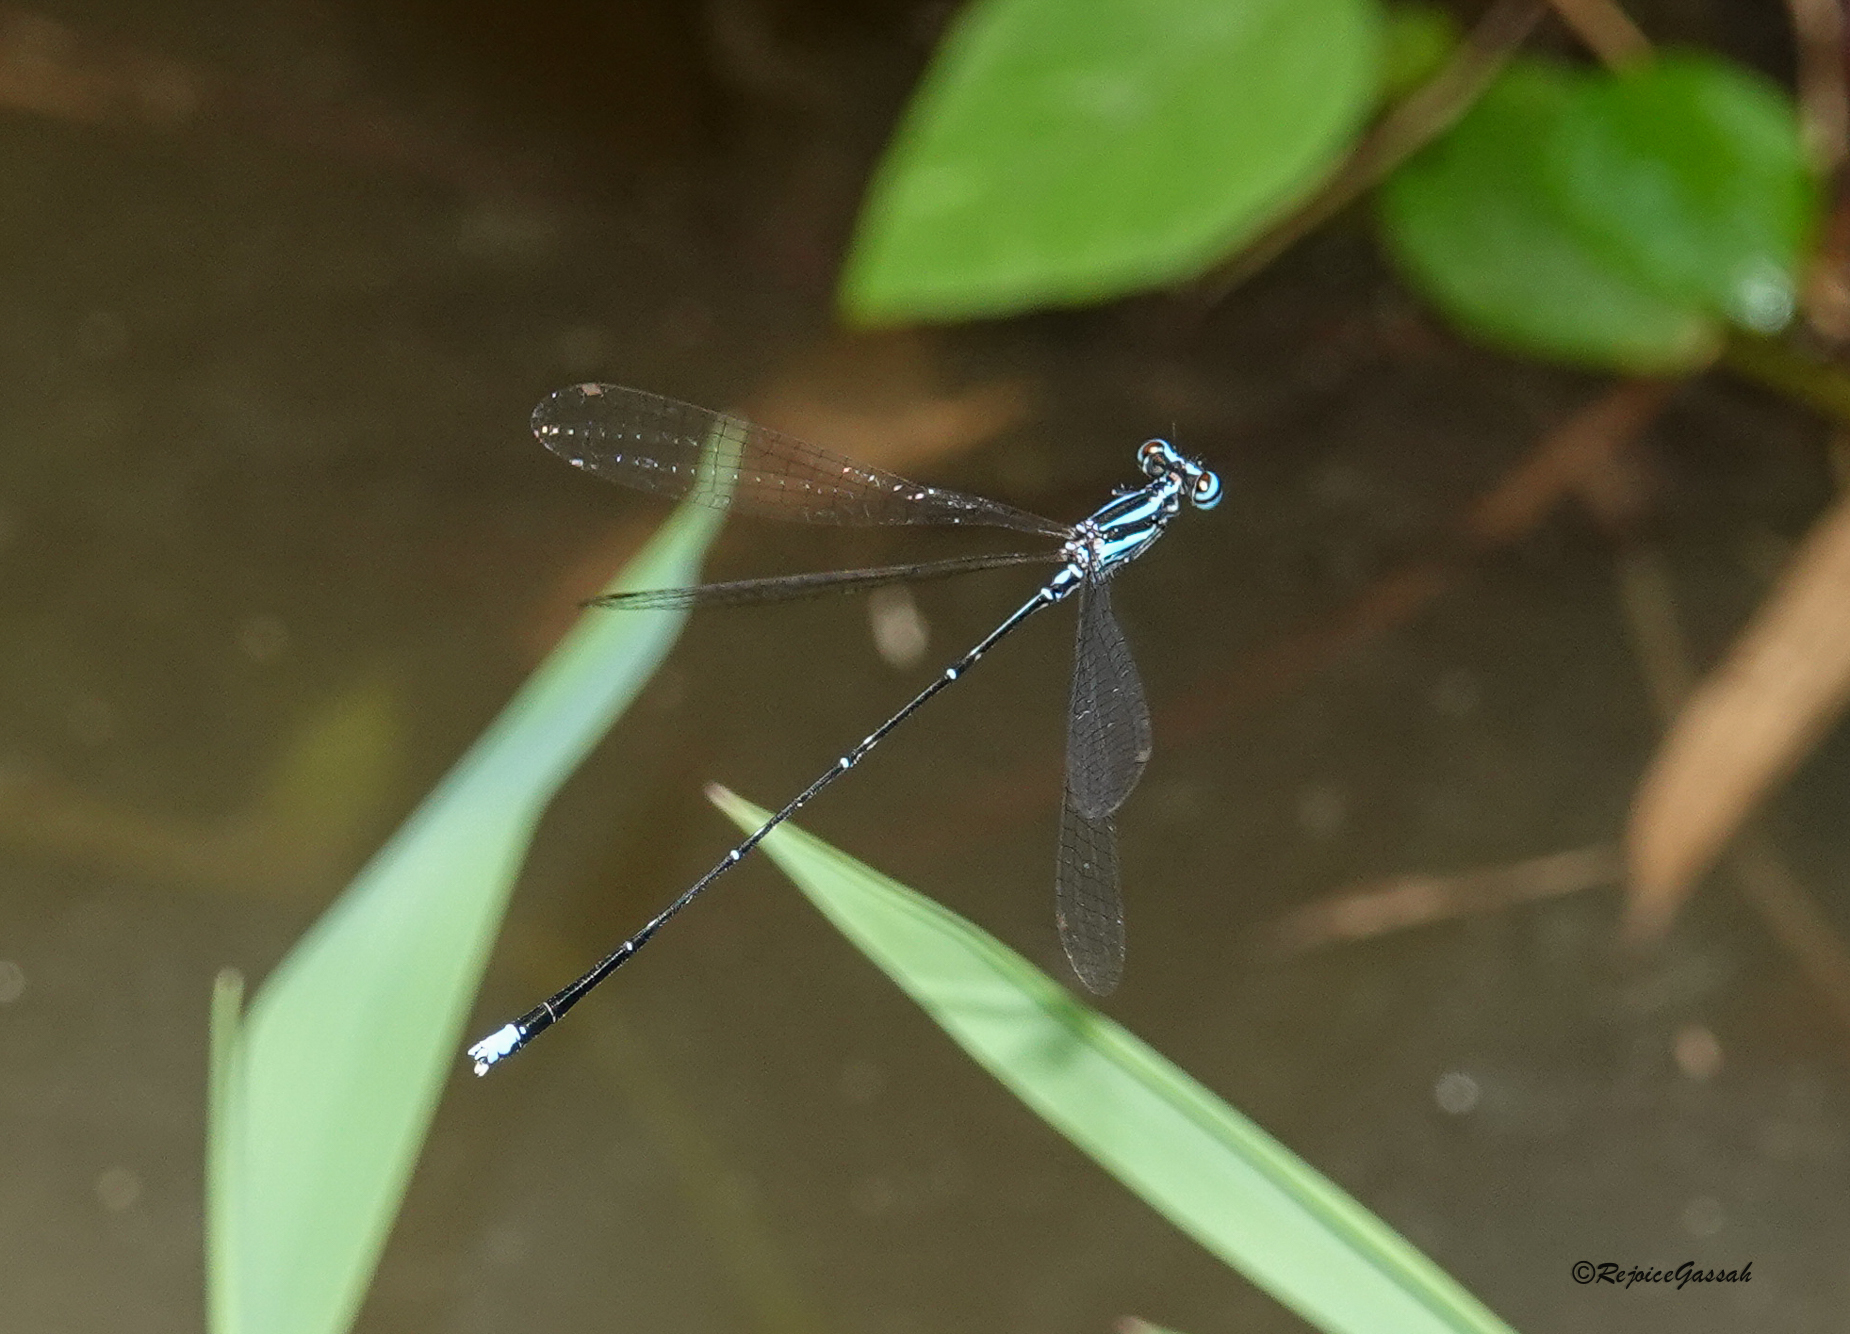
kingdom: Animalia
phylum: Arthropoda
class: Insecta
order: Odonata
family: Platycnemididae
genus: Elattoneura
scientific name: Elattoneura campioni
